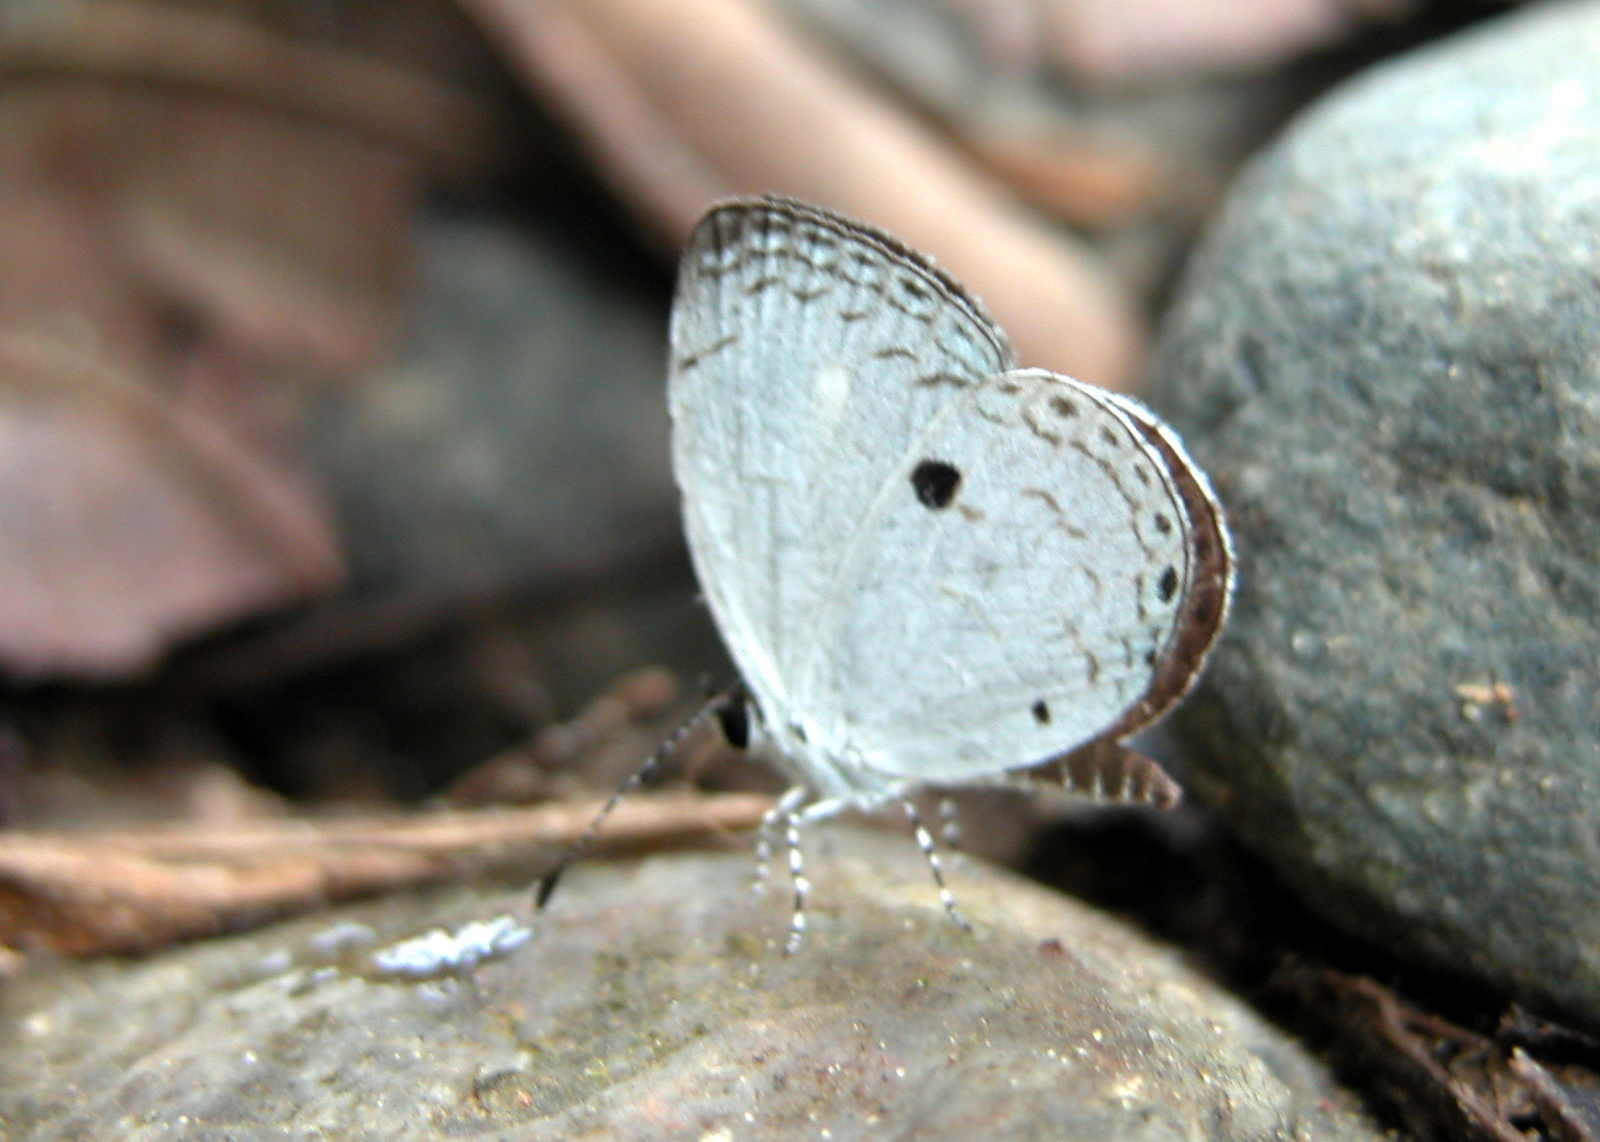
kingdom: Animalia
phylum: Arthropoda
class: Insecta
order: Lepidoptera
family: Lycaenidae
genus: Neopithecops
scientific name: Neopithecops zalmora
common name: Quaker
